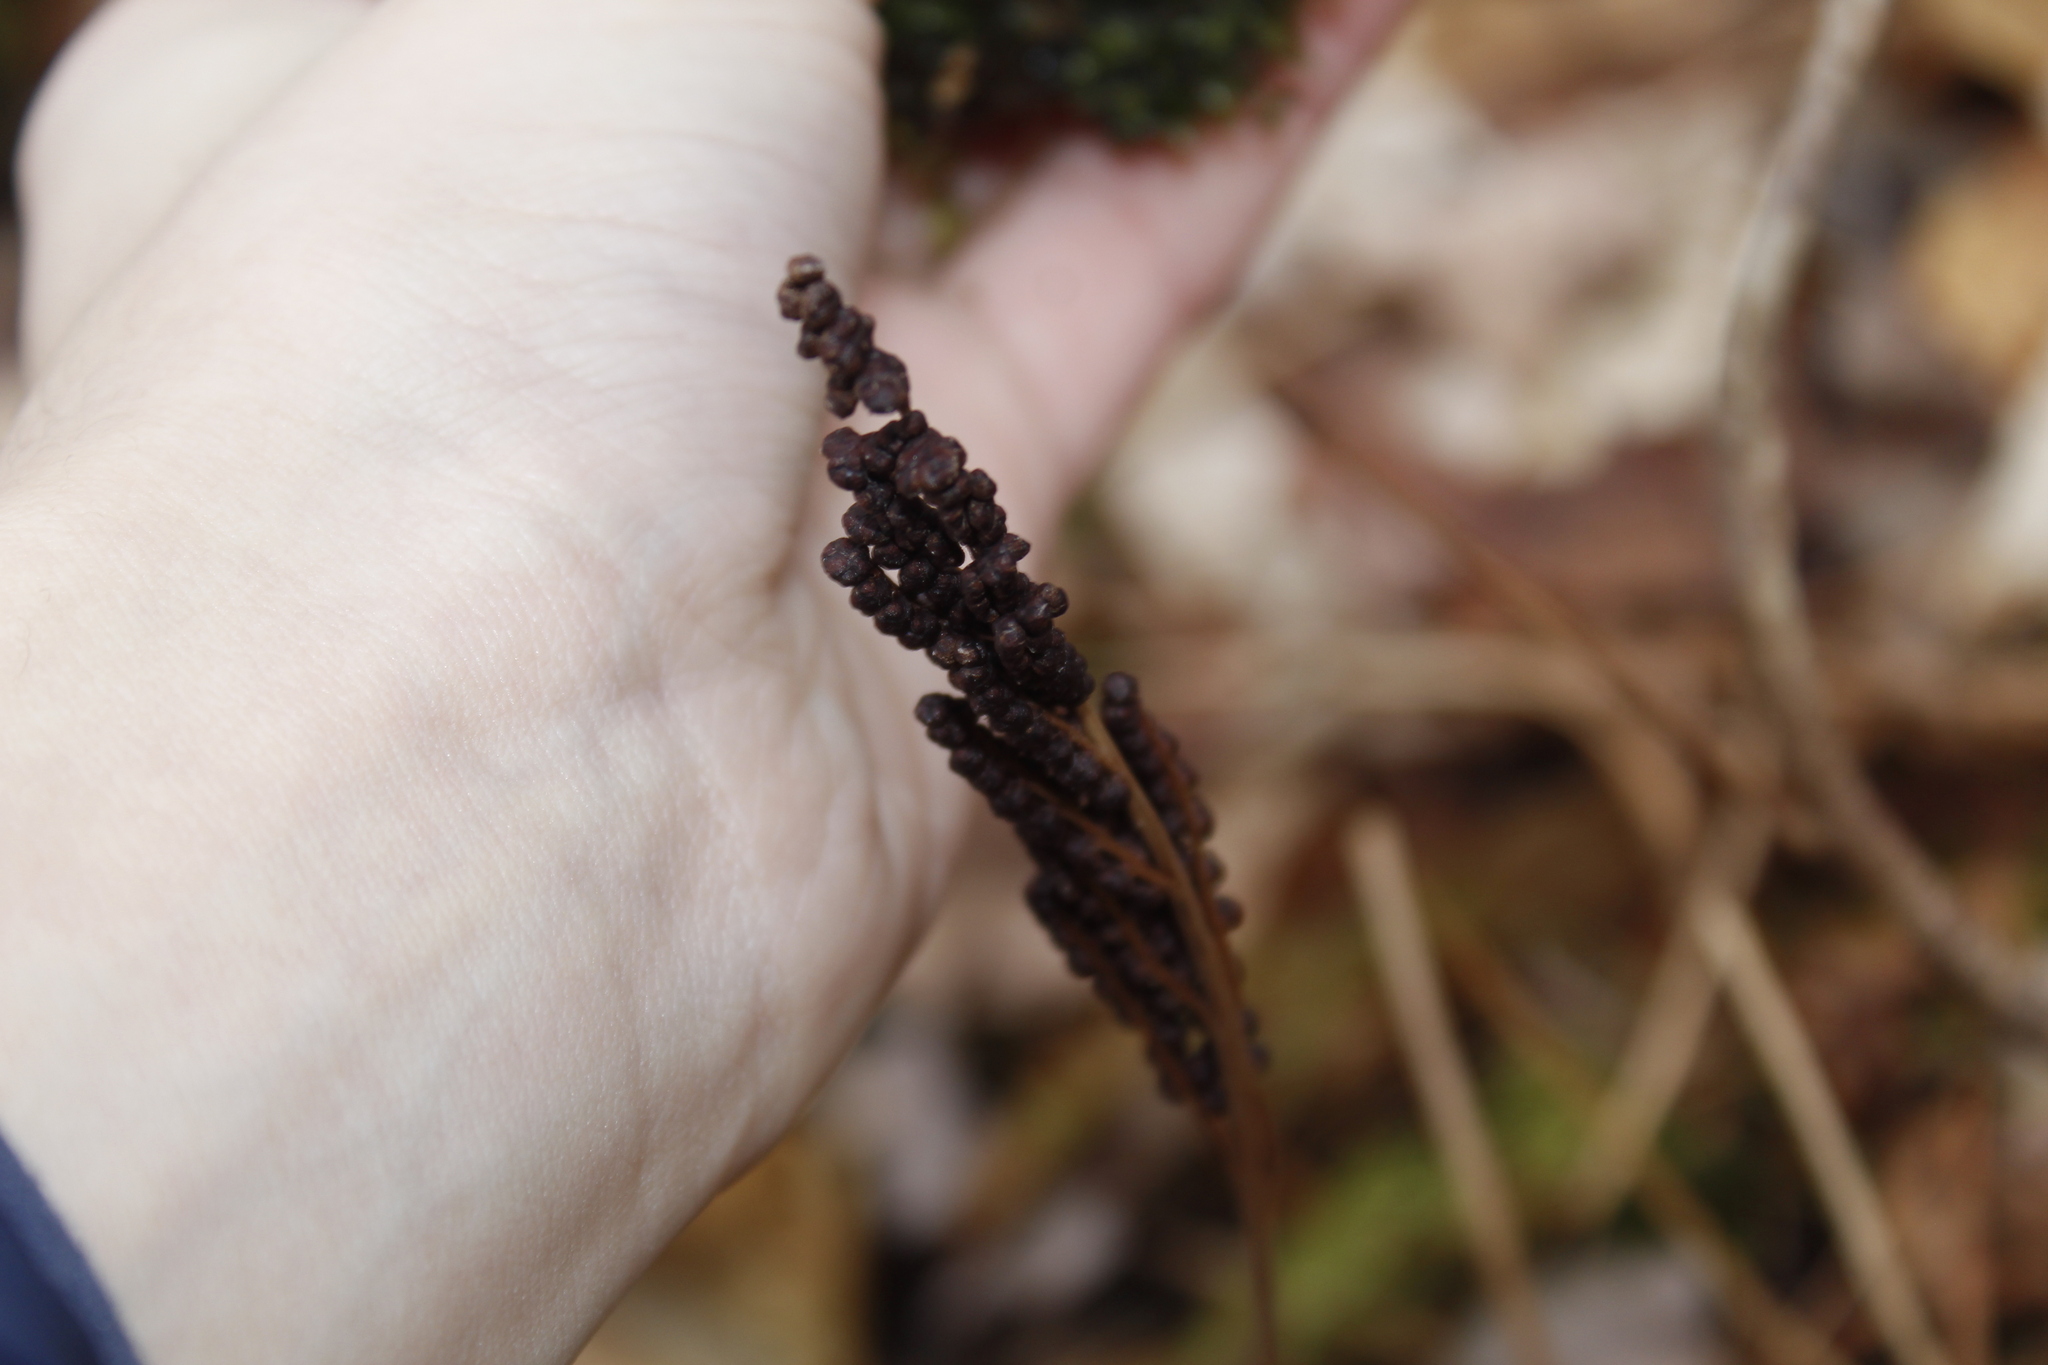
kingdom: Plantae
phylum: Tracheophyta
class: Polypodiopsida
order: Polypodiales
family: Onocleaceae
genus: Onoclea
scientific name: Onoclea sensibilis
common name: Sensitive fern
